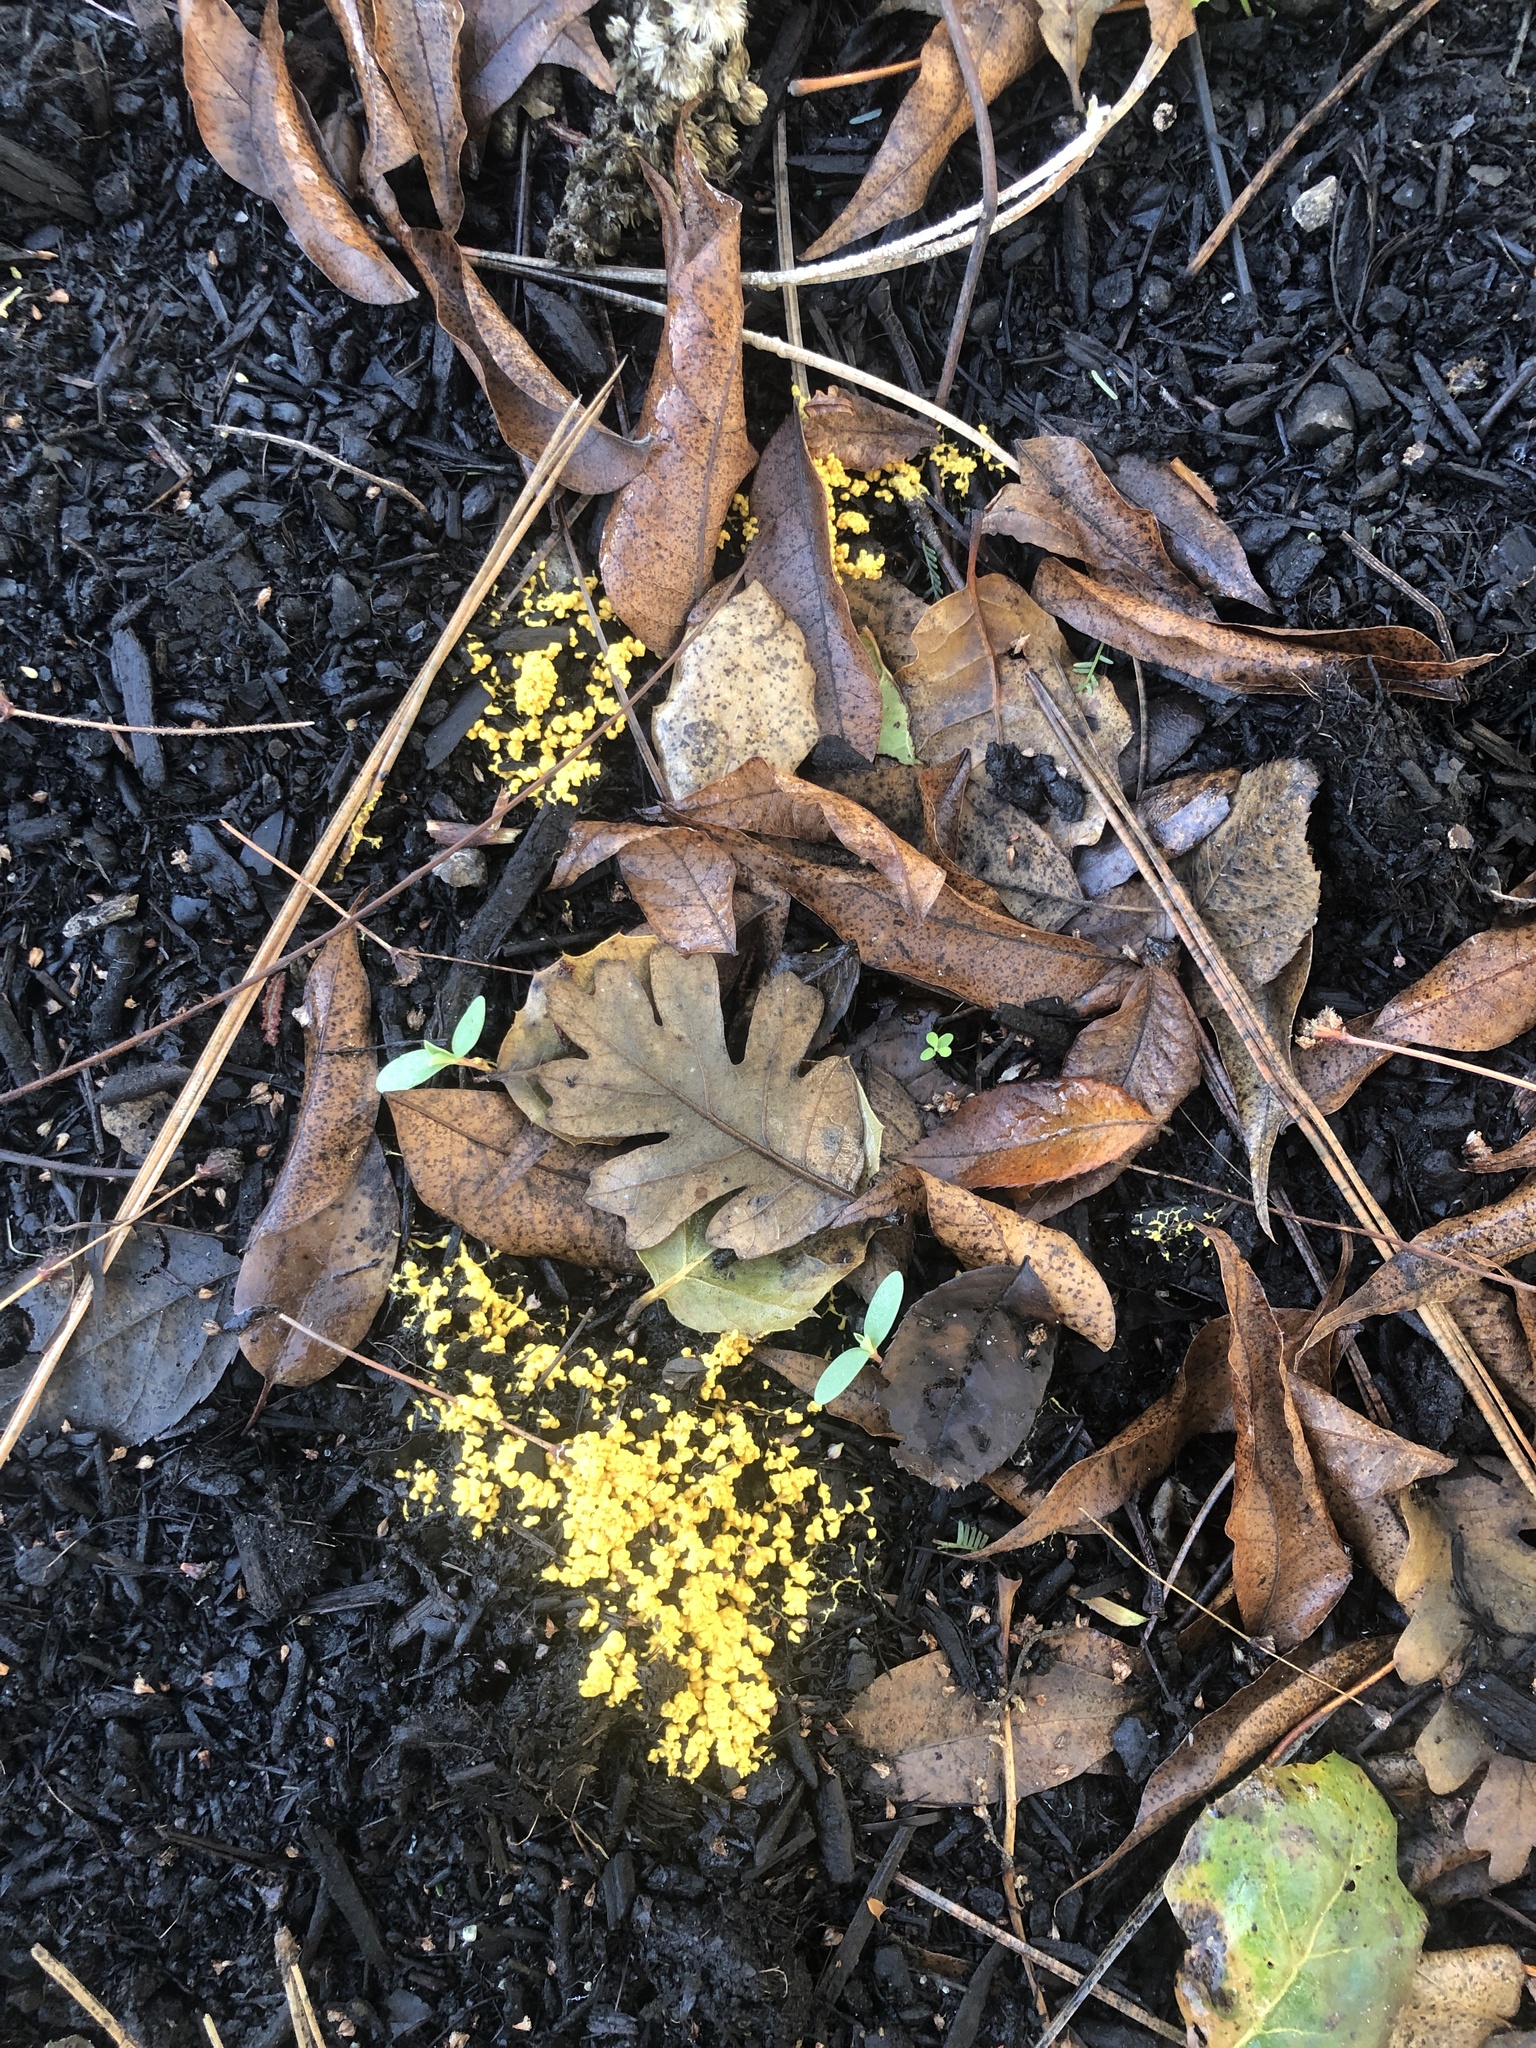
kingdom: Protozoa
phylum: Mycetozoa
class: Myxomycetes
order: Physarales
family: Physaraceae
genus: Fuligo
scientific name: Fuligo septica
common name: Dog vomit slime mold
